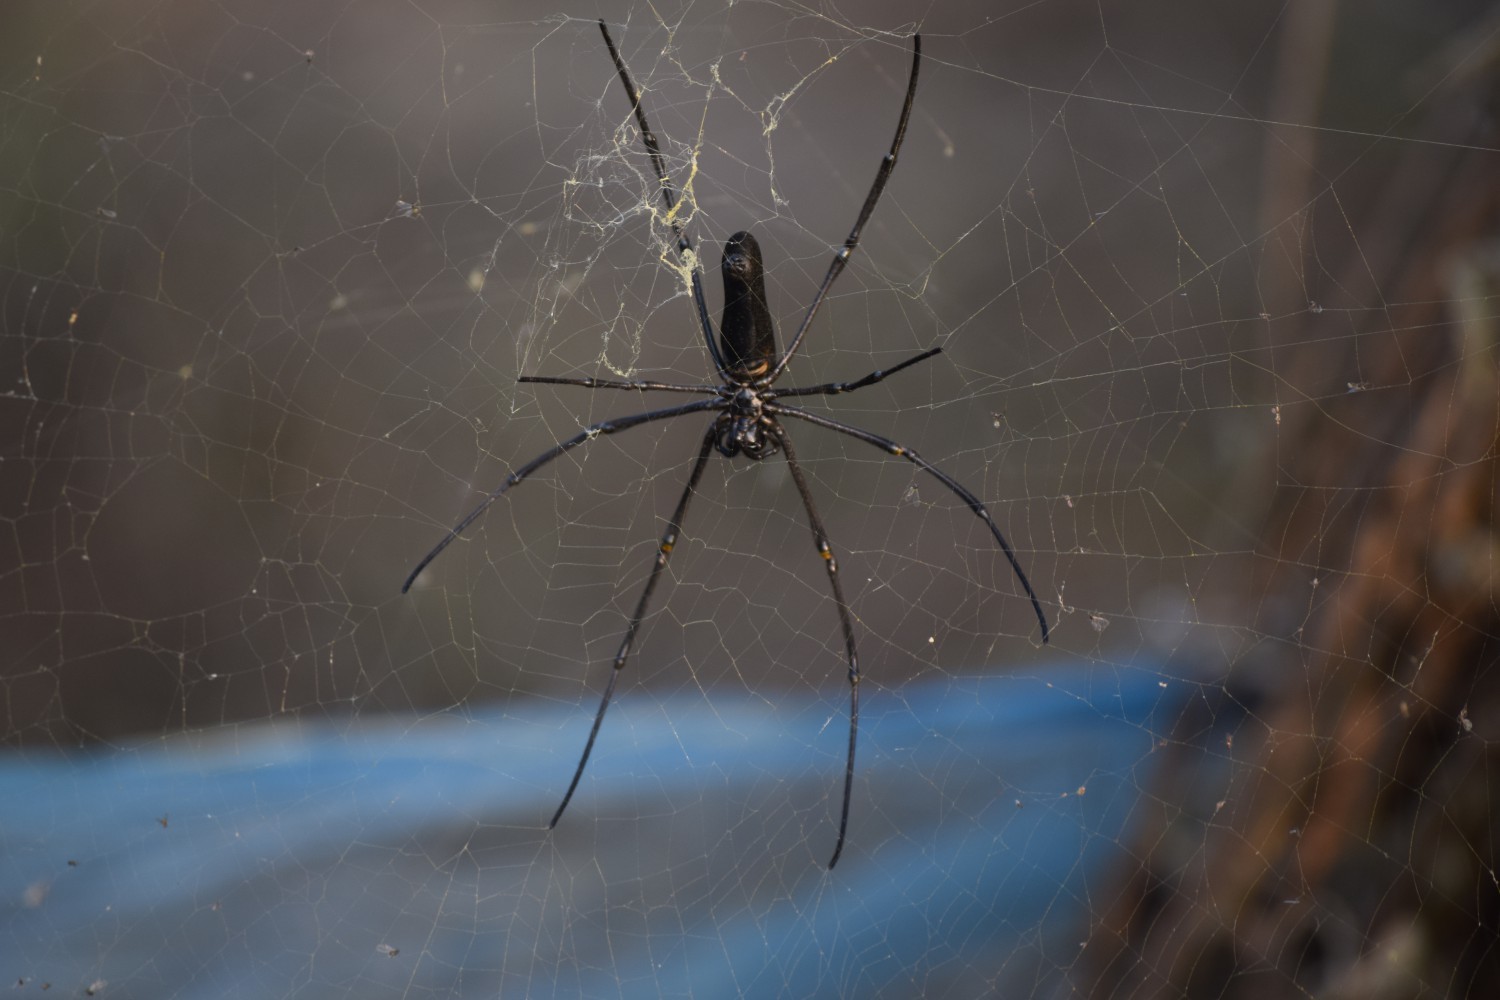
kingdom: Animalia
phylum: Arthropoda
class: Arachnida
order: Araneae
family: Araneidae
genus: Nephila
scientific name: Nephila pilipes
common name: Giant golden orb weaver
